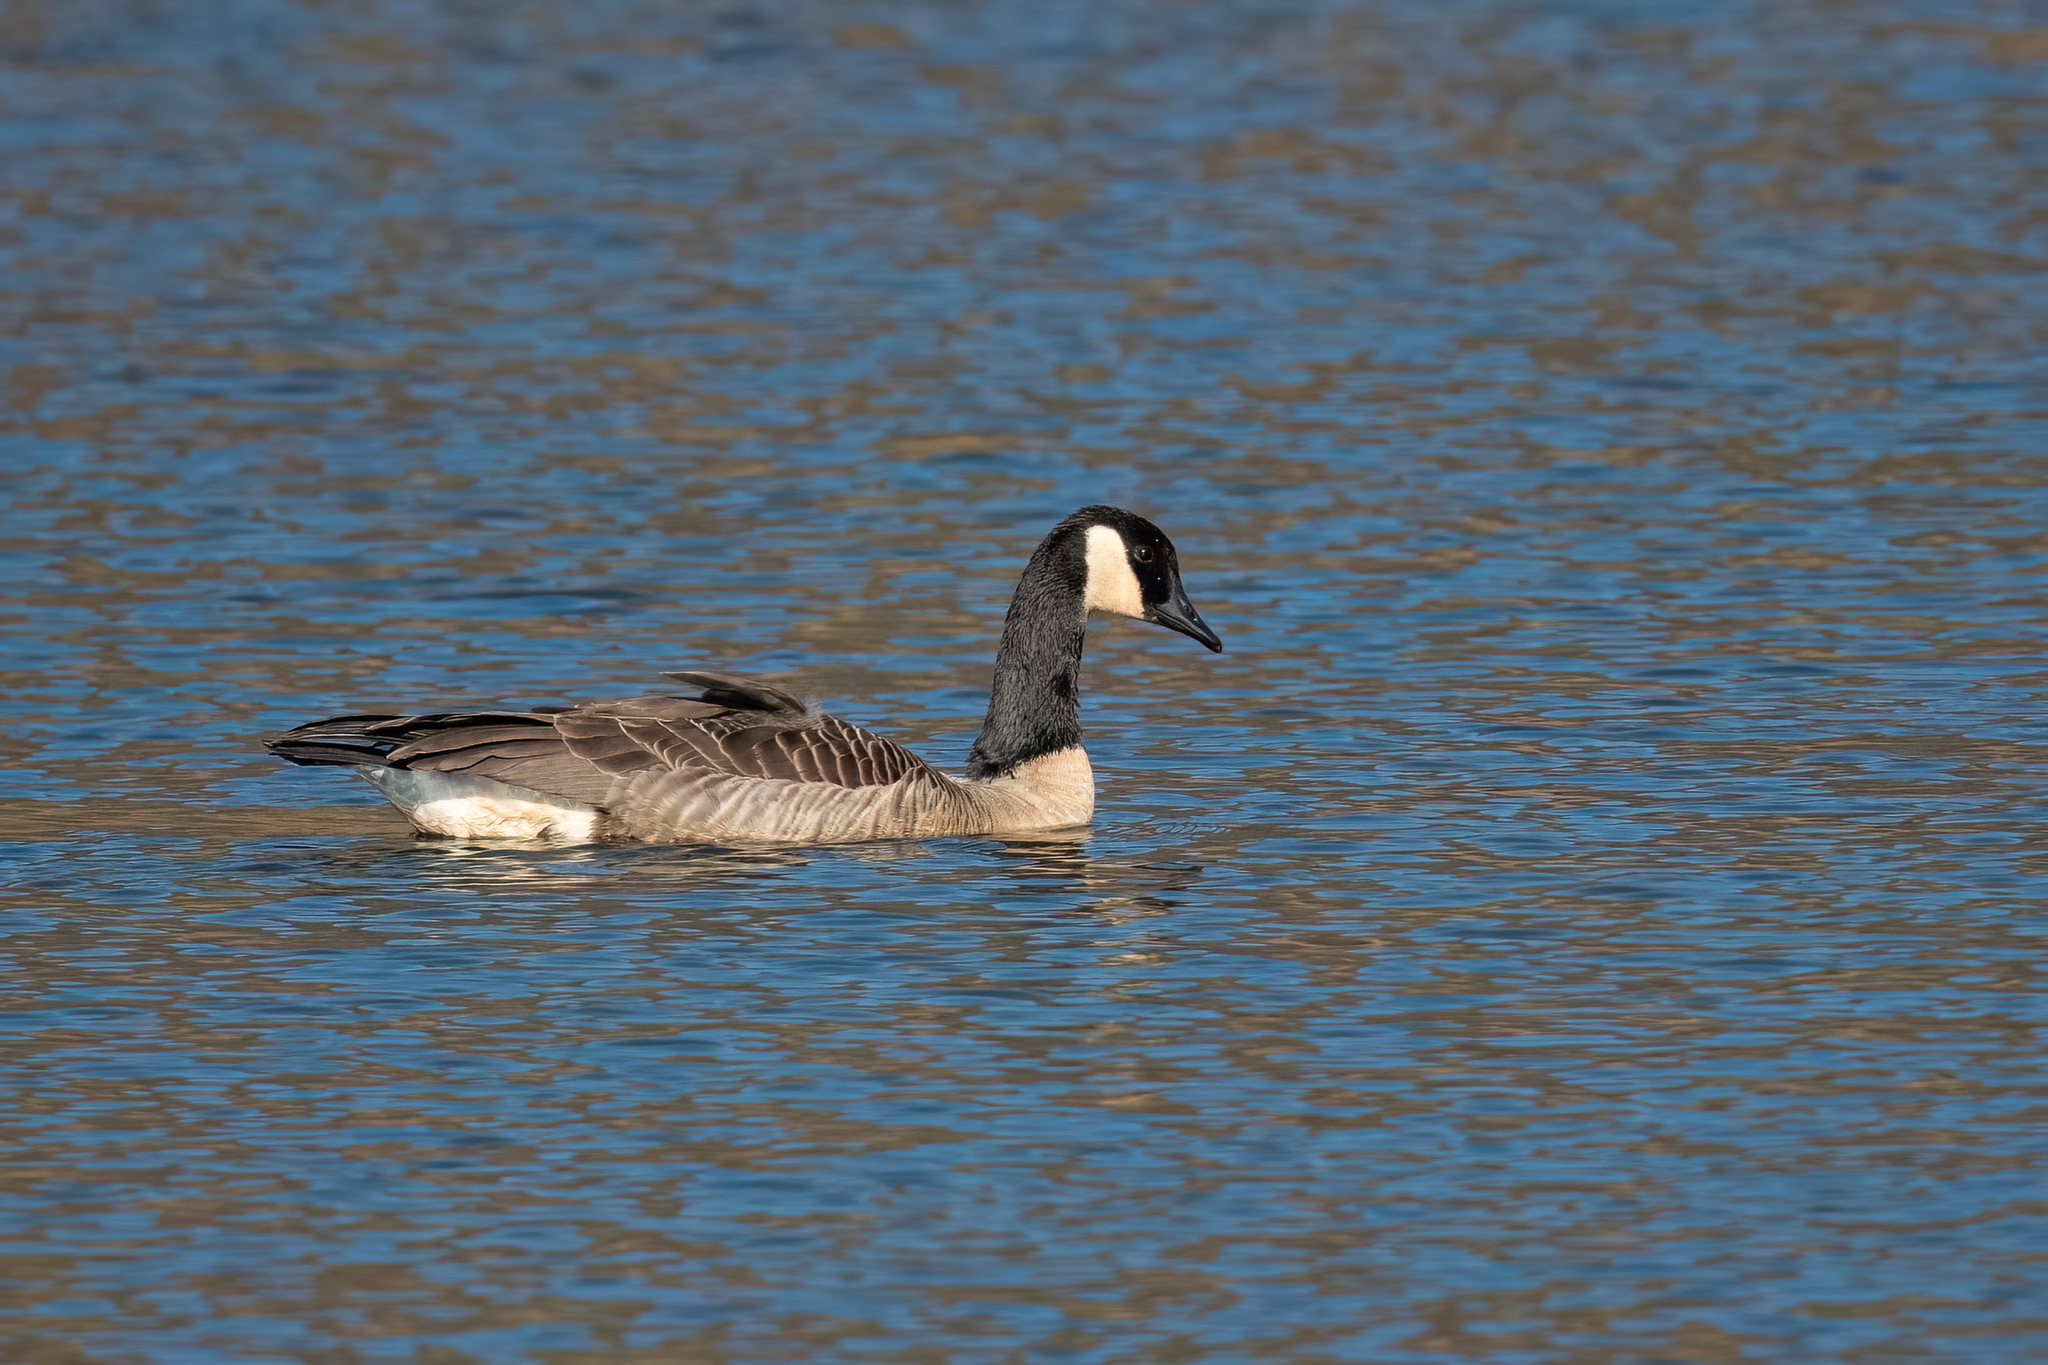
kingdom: Animalia
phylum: Chordata
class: Aves
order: Anseriformes
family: Anatidae
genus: Branta
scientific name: Branta canadensis
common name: Canada goose
